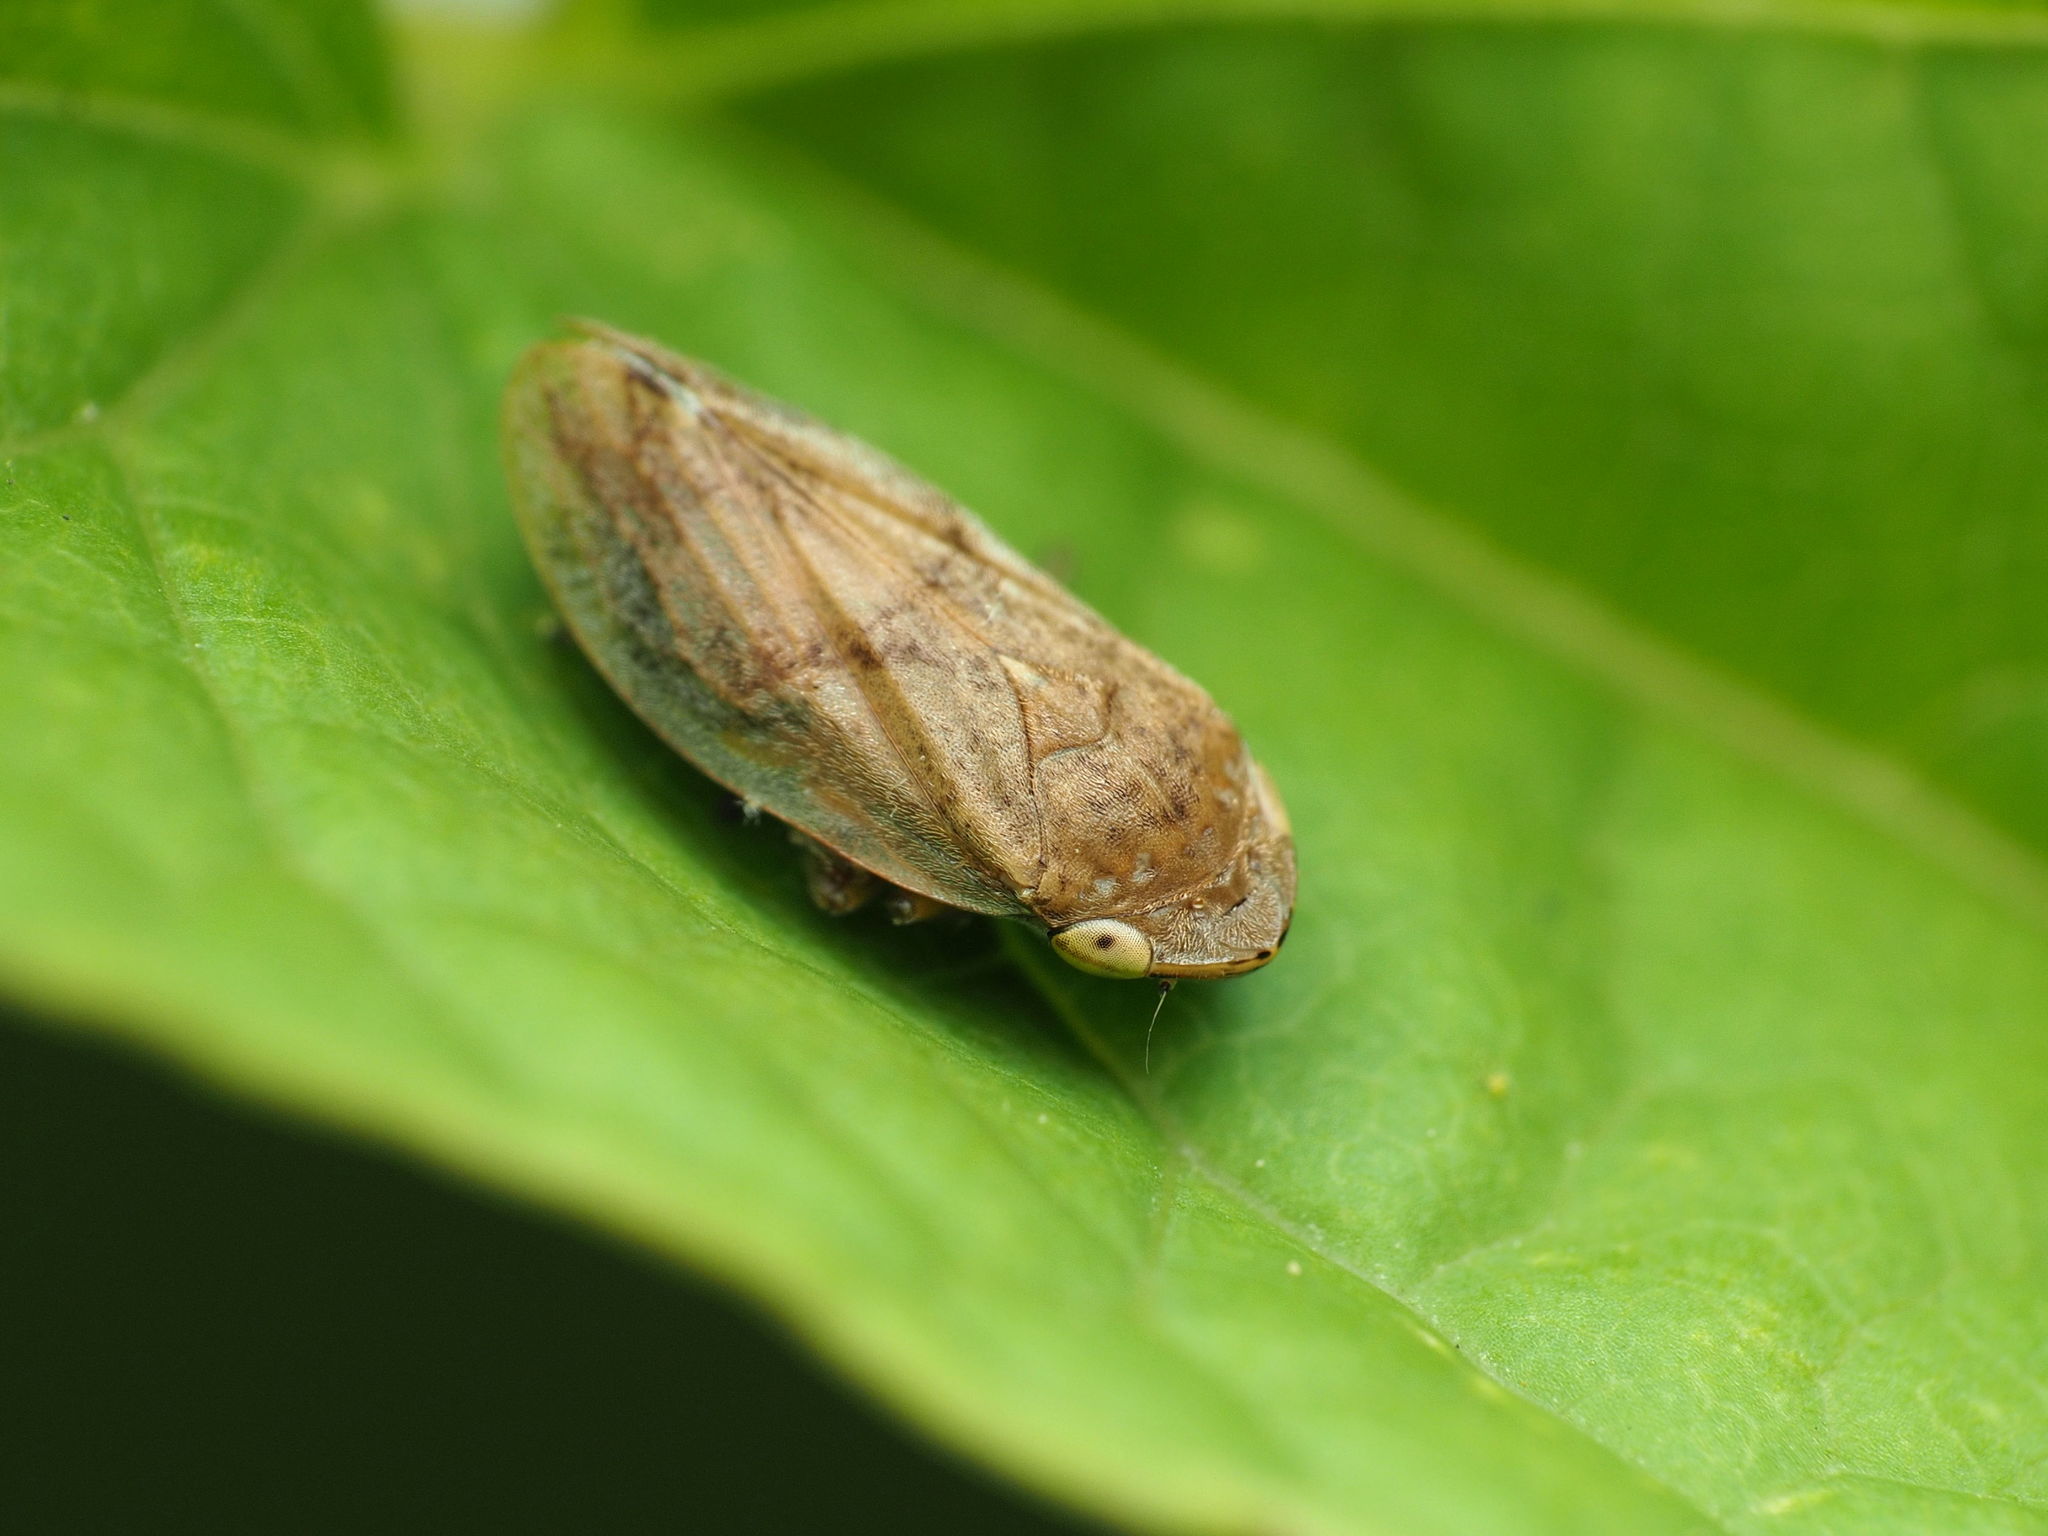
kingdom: Animalia
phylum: Arthropoda
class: Insecta
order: Hemiptera
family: Aphrophoridae
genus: Philaenus
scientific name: Philaenus spumarius
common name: Meadow spittlebug
